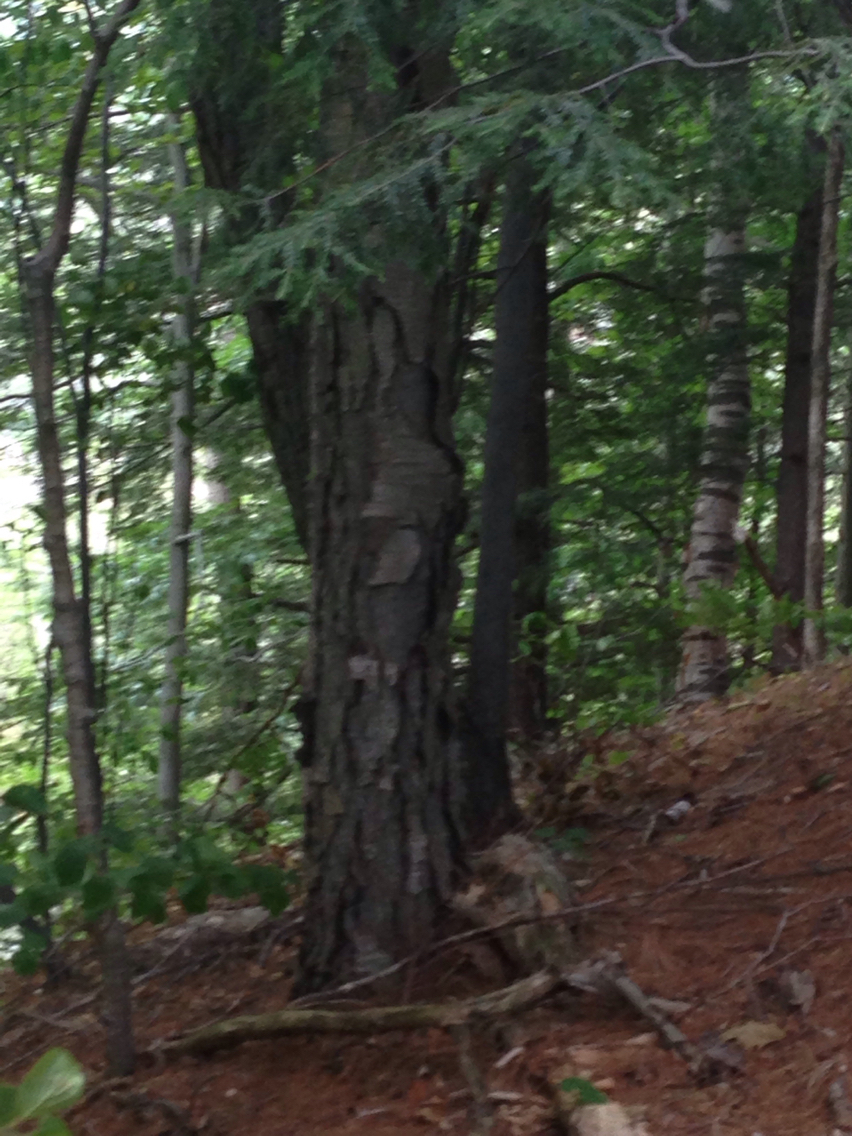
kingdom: Plantae
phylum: Tracheophyta
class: Magnoliopsida
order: Fagales
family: Betulaceae
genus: Betula
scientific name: Betula lenta
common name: Black birch
